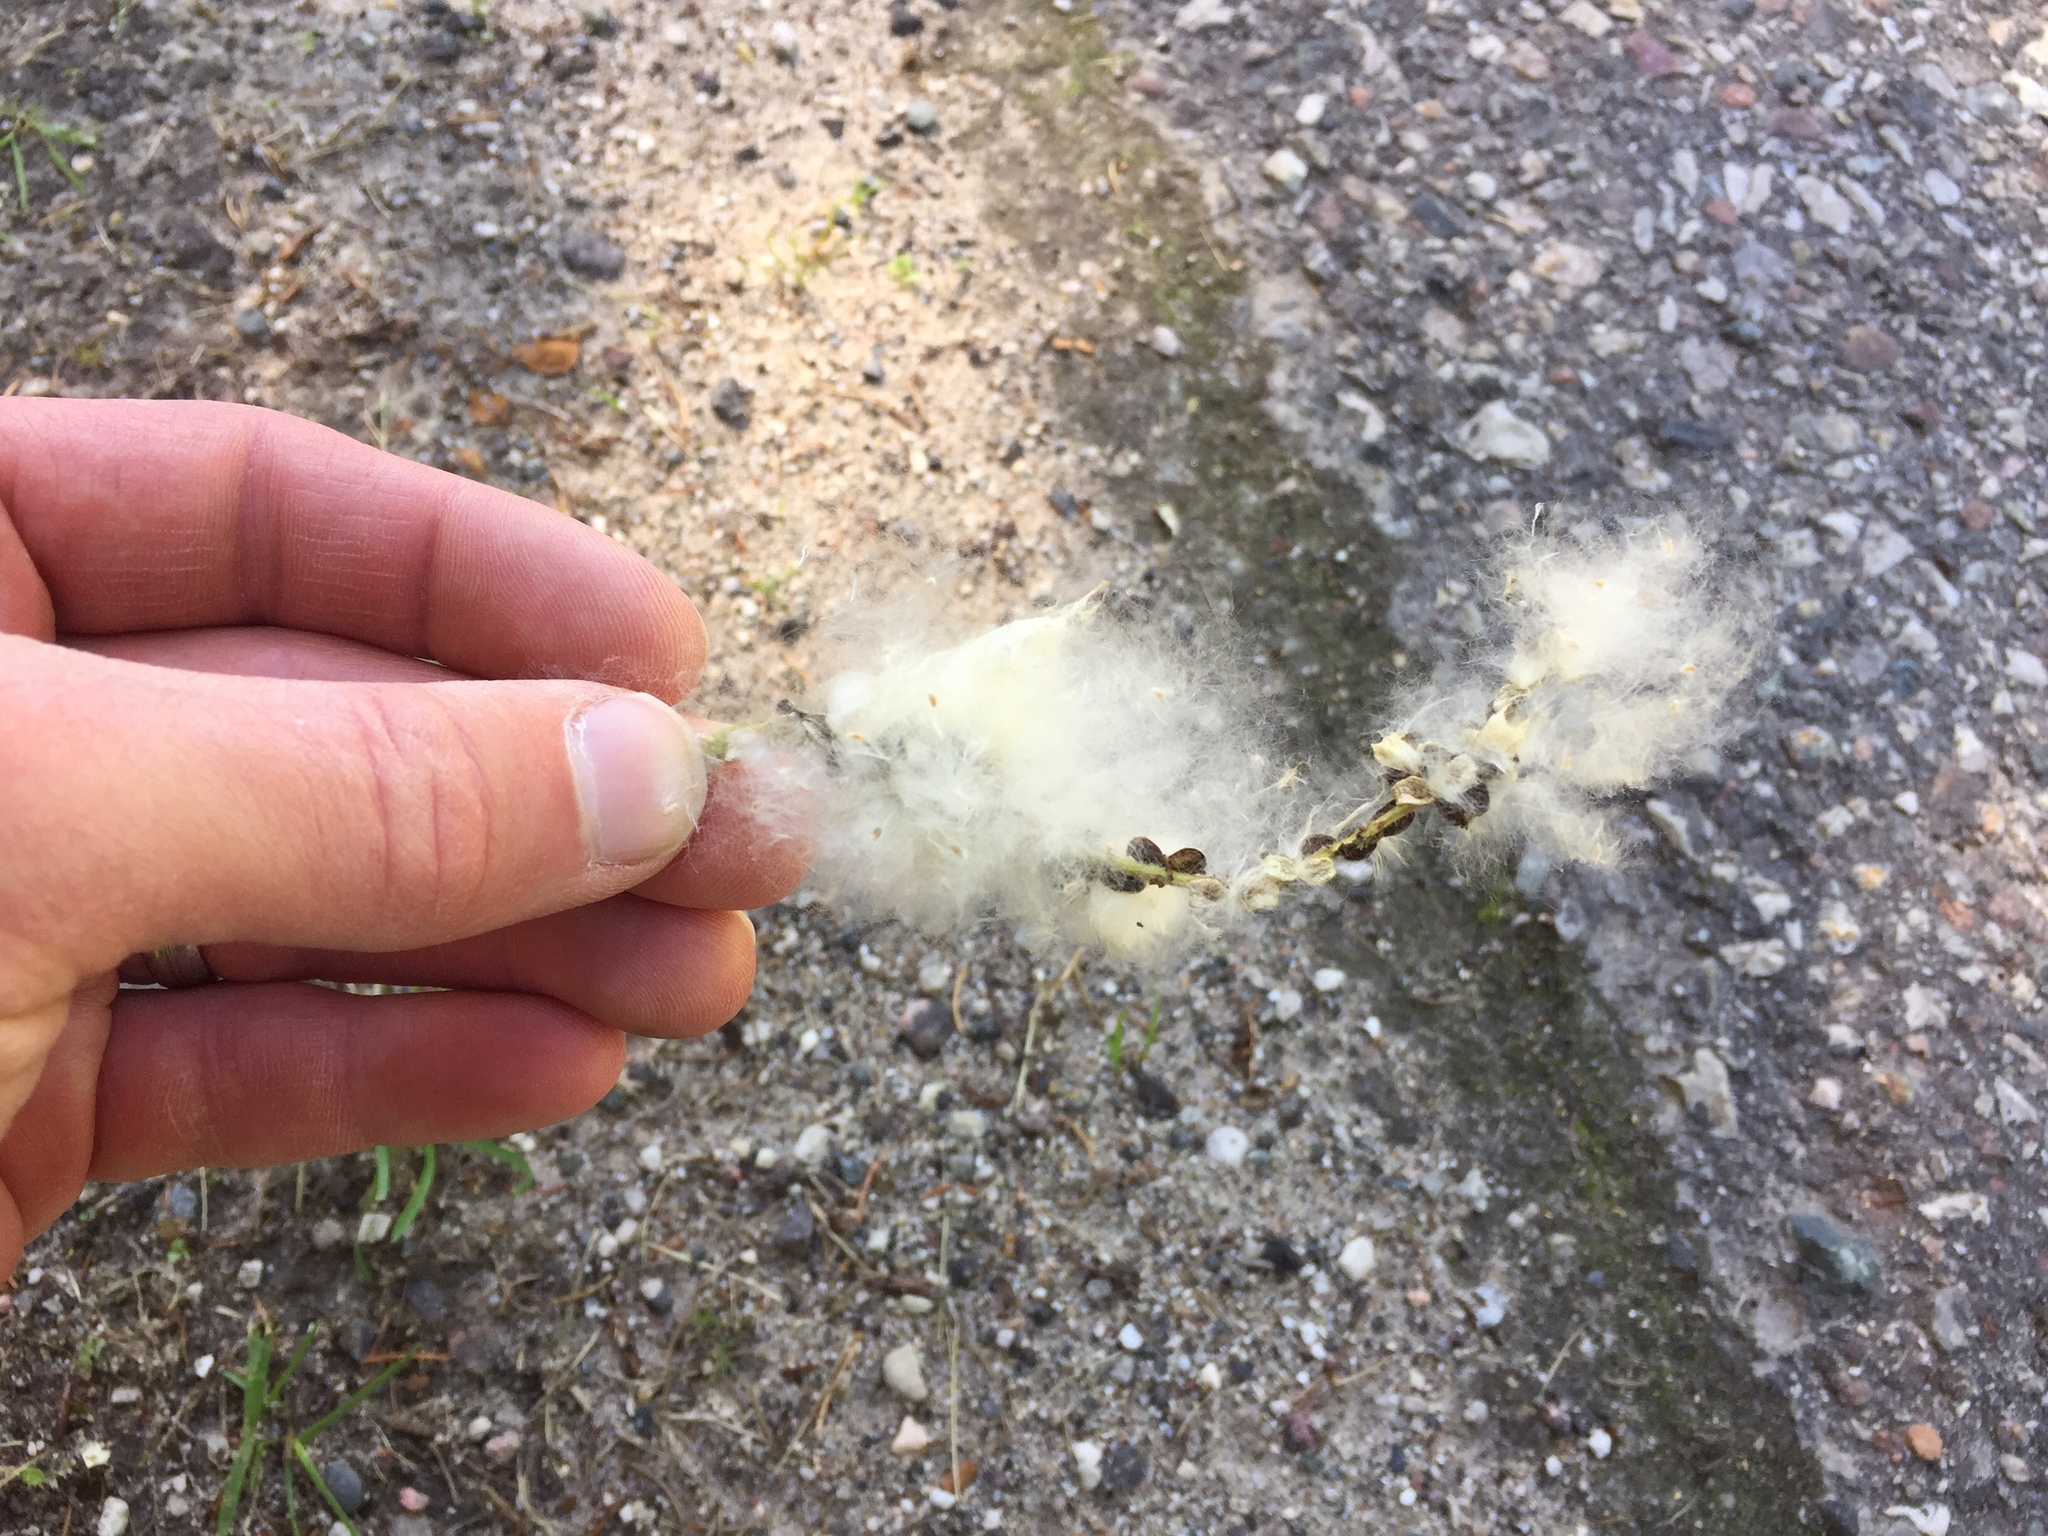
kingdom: Plantae
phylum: Tracheophyta
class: Magnoliopsida
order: Malpighiales
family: Salicaceae
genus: Populus
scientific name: Populus deltoides
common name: Eastern cottonwood
